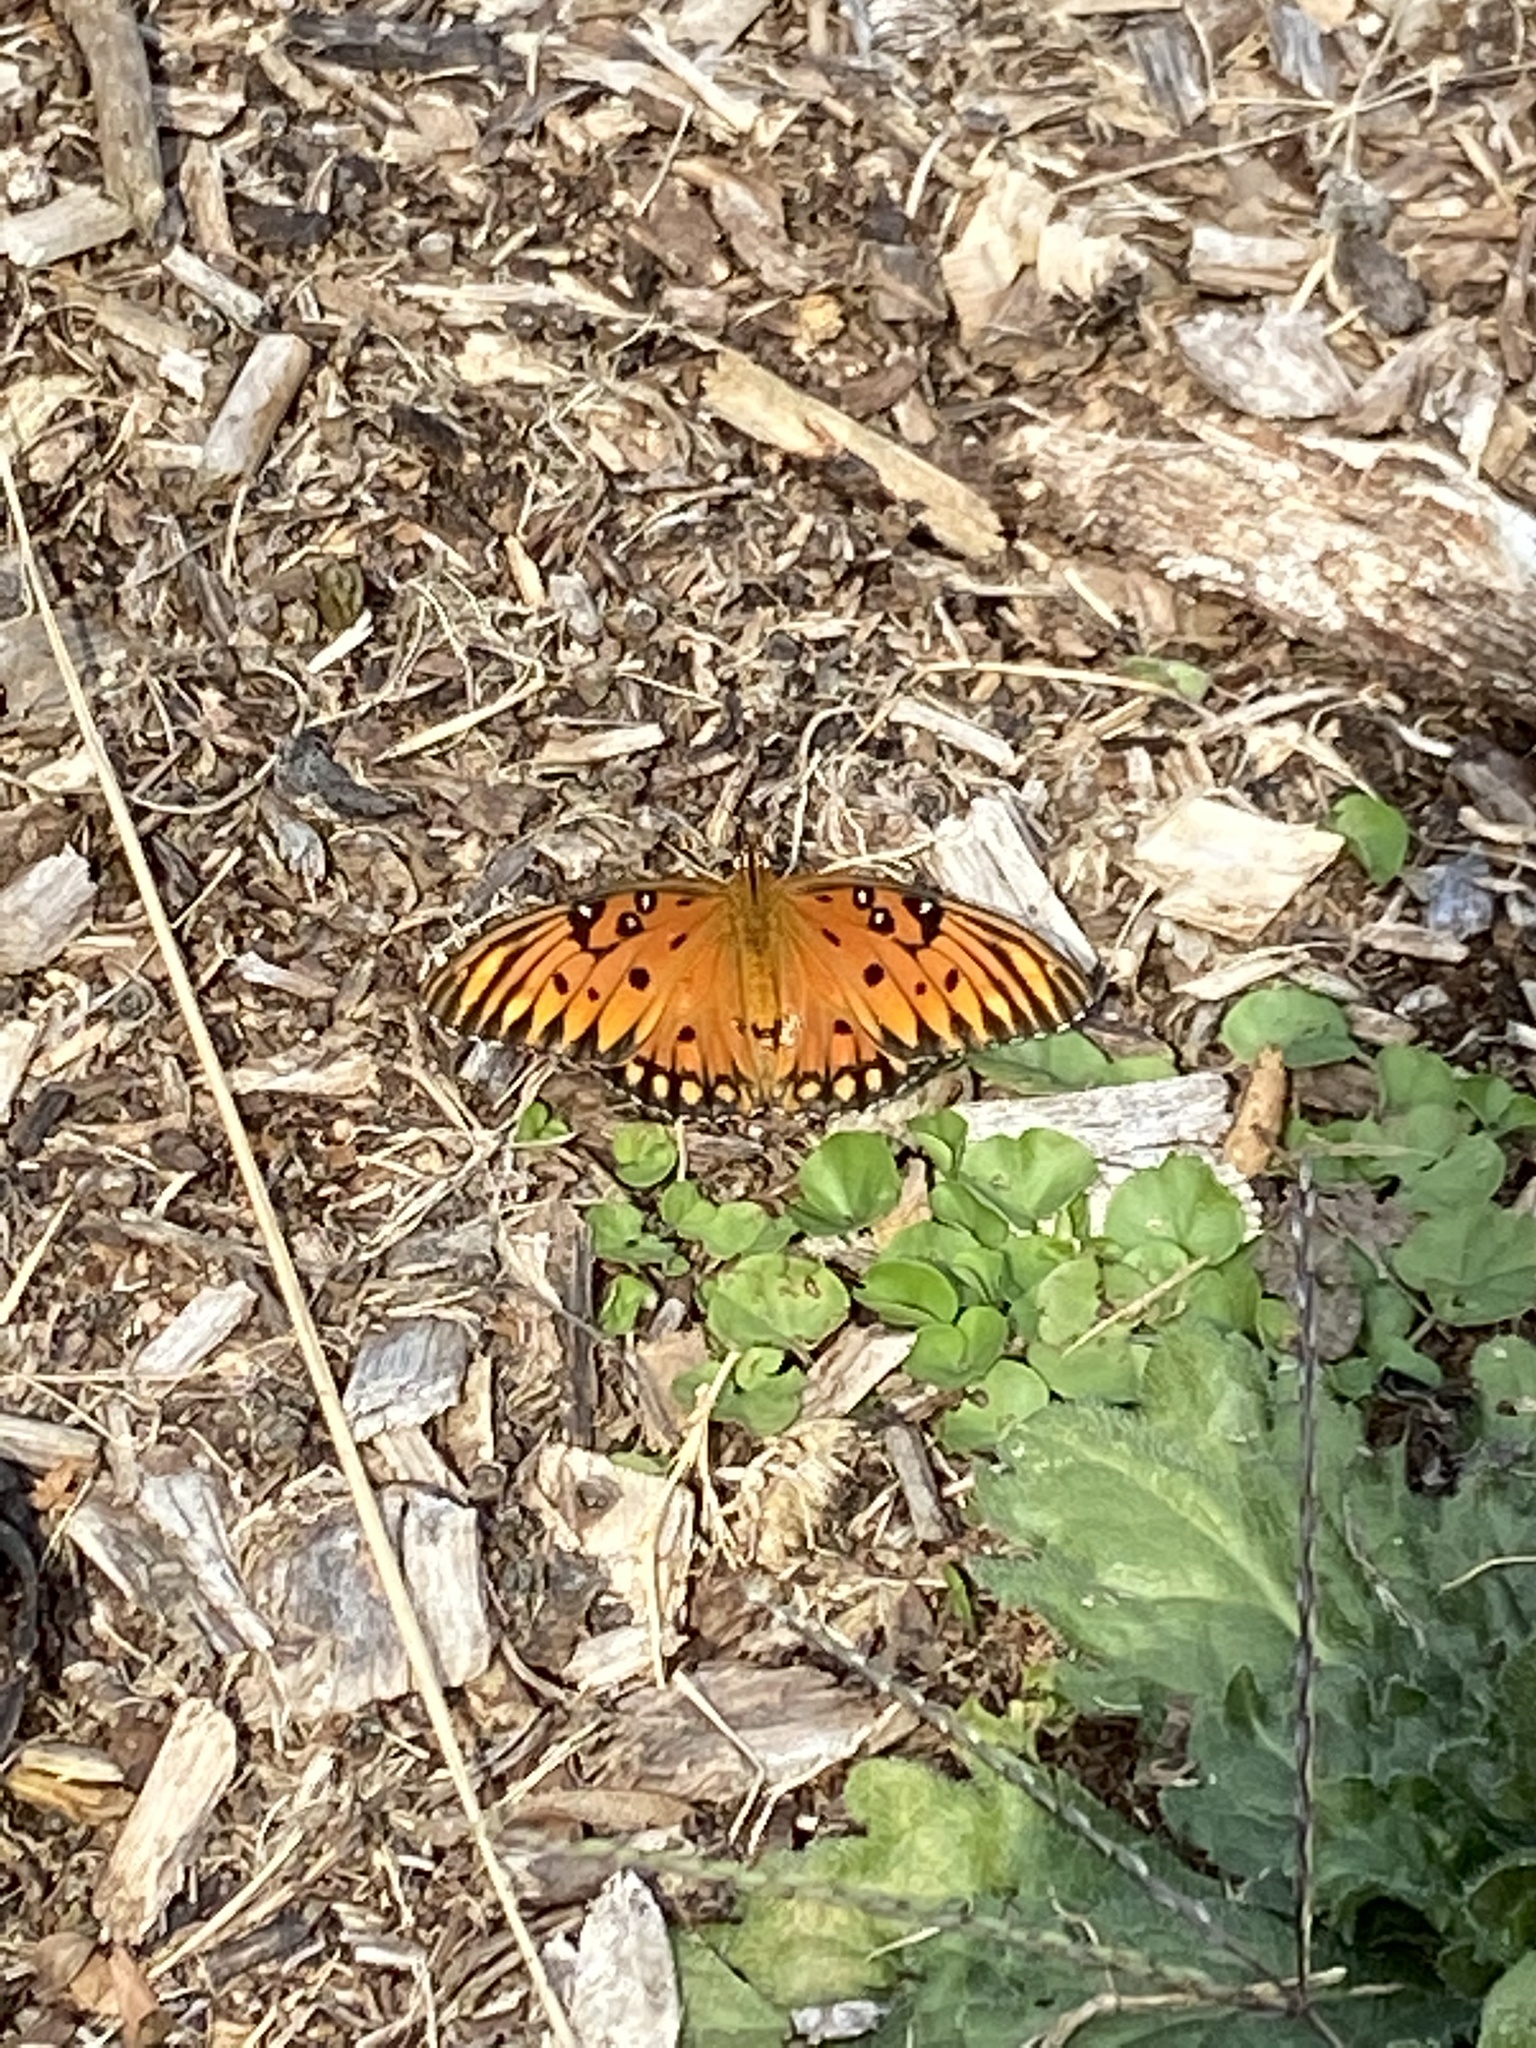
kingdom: Animalia
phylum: Arthropoda
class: Insecta
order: Lepidoptera
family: Nymphalidae
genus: Dione
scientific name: Dione vanillae
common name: Gulf fritillary
